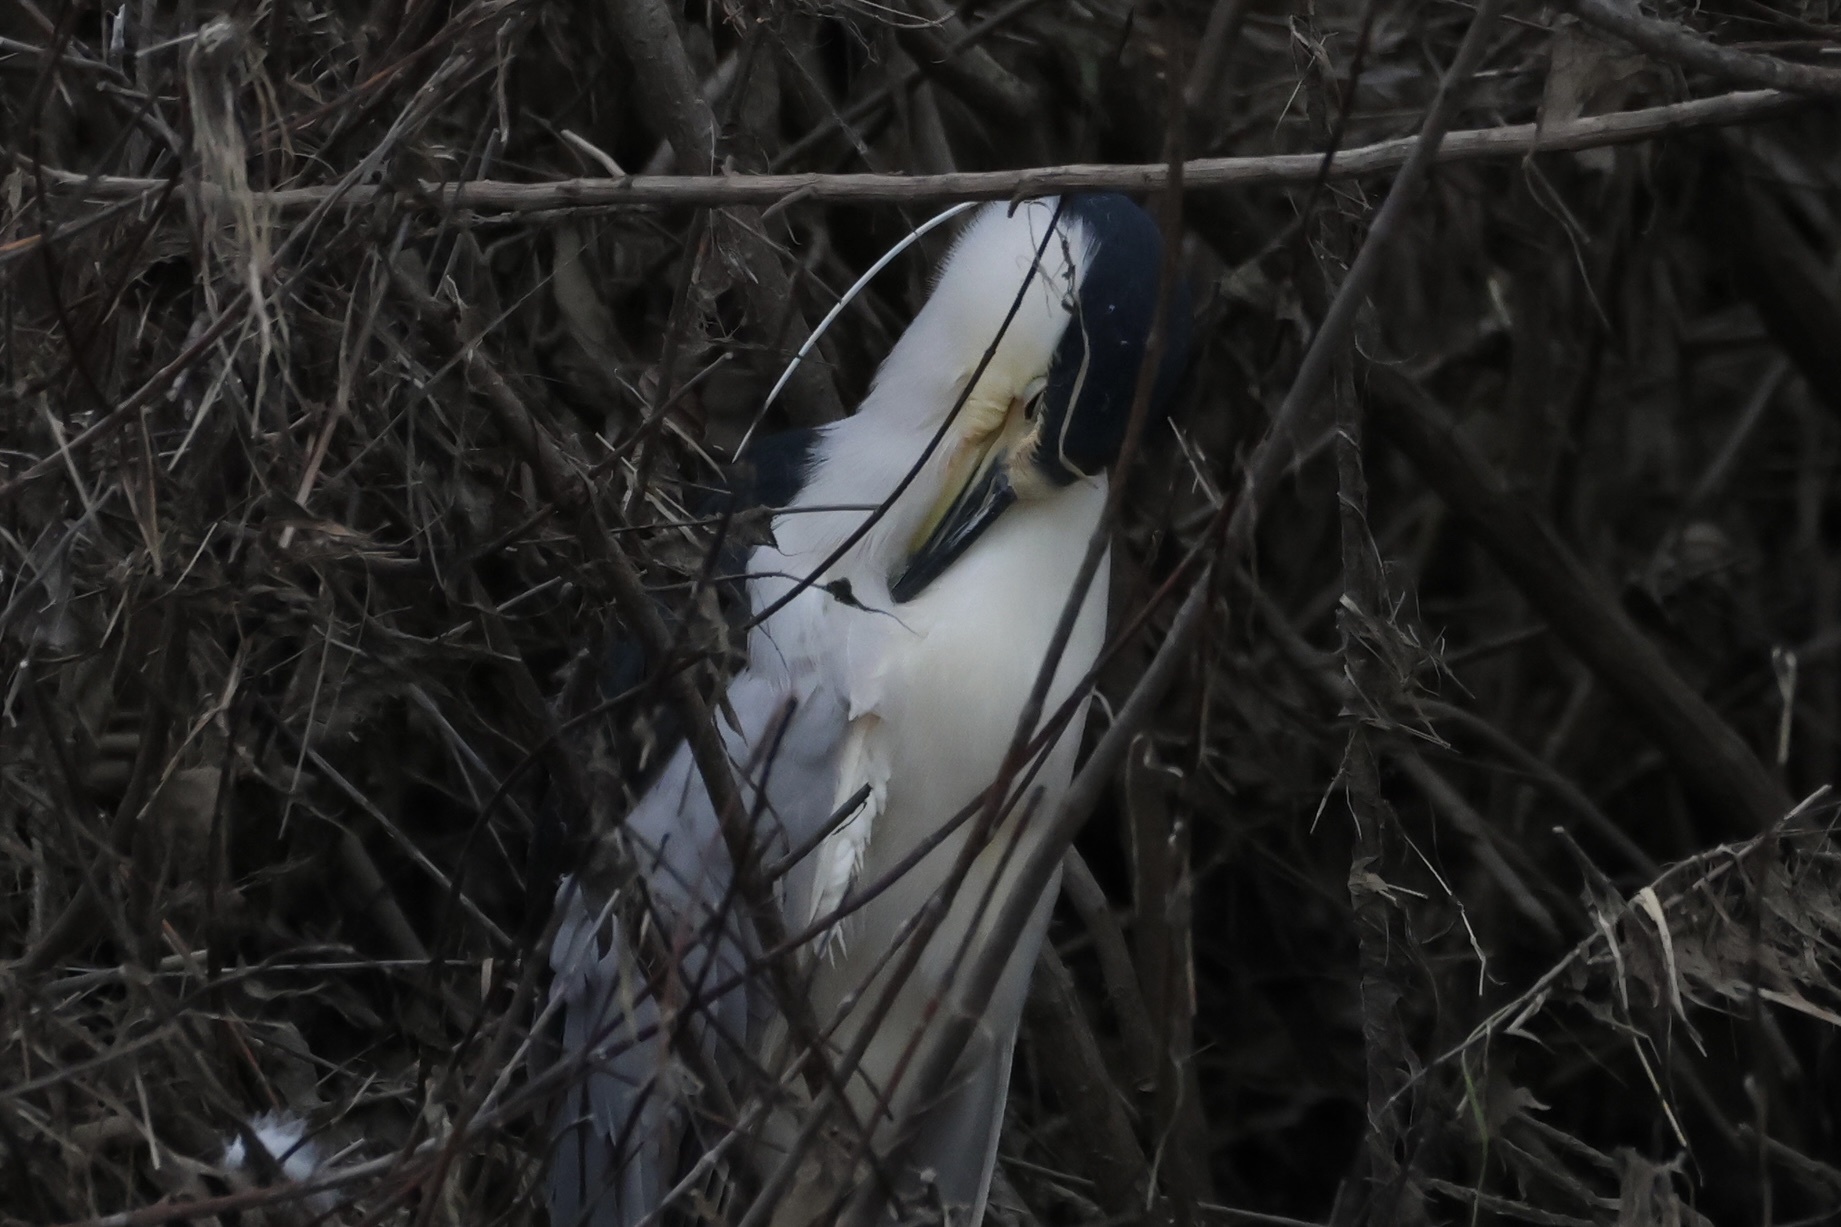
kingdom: Animalia
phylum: Chordata
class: Aves
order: Pelecaniformes
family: Ardeidae
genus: Nycticorax
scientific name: Nycticorax nycticorax
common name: Black-crowned night heron
